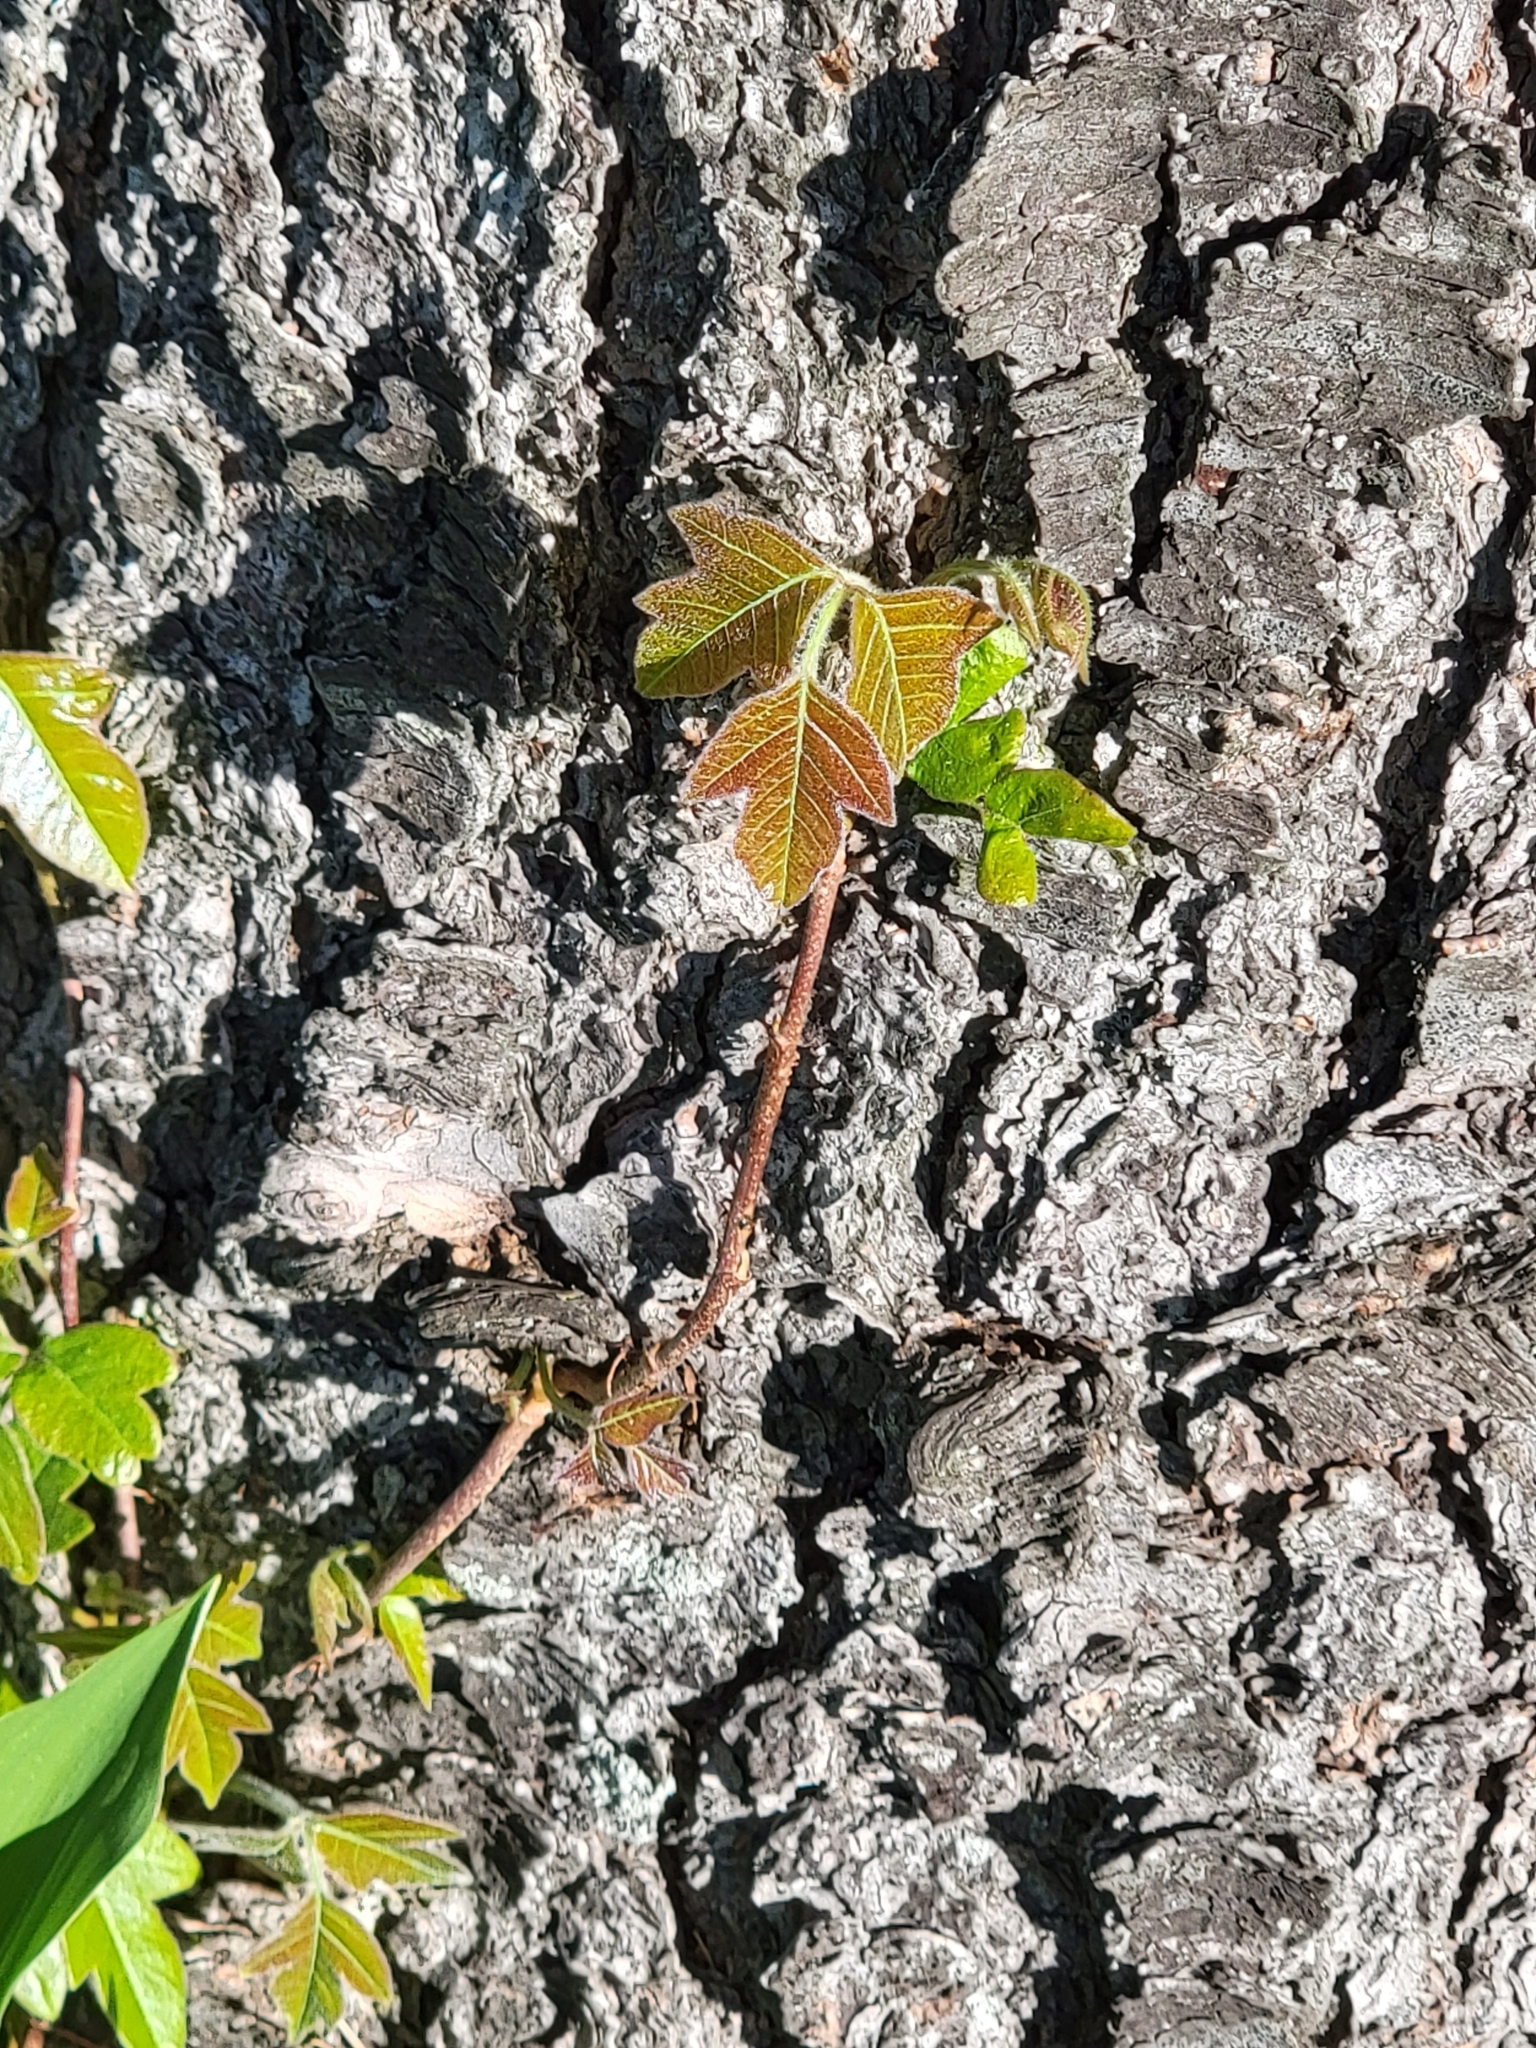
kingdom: Plantae
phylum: Tracheophyta
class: Magnoliopsida
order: Sapindales
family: Anacardiaceae
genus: Toxicodendron
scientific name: Toxicodendron radicans
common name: Poison ivy
